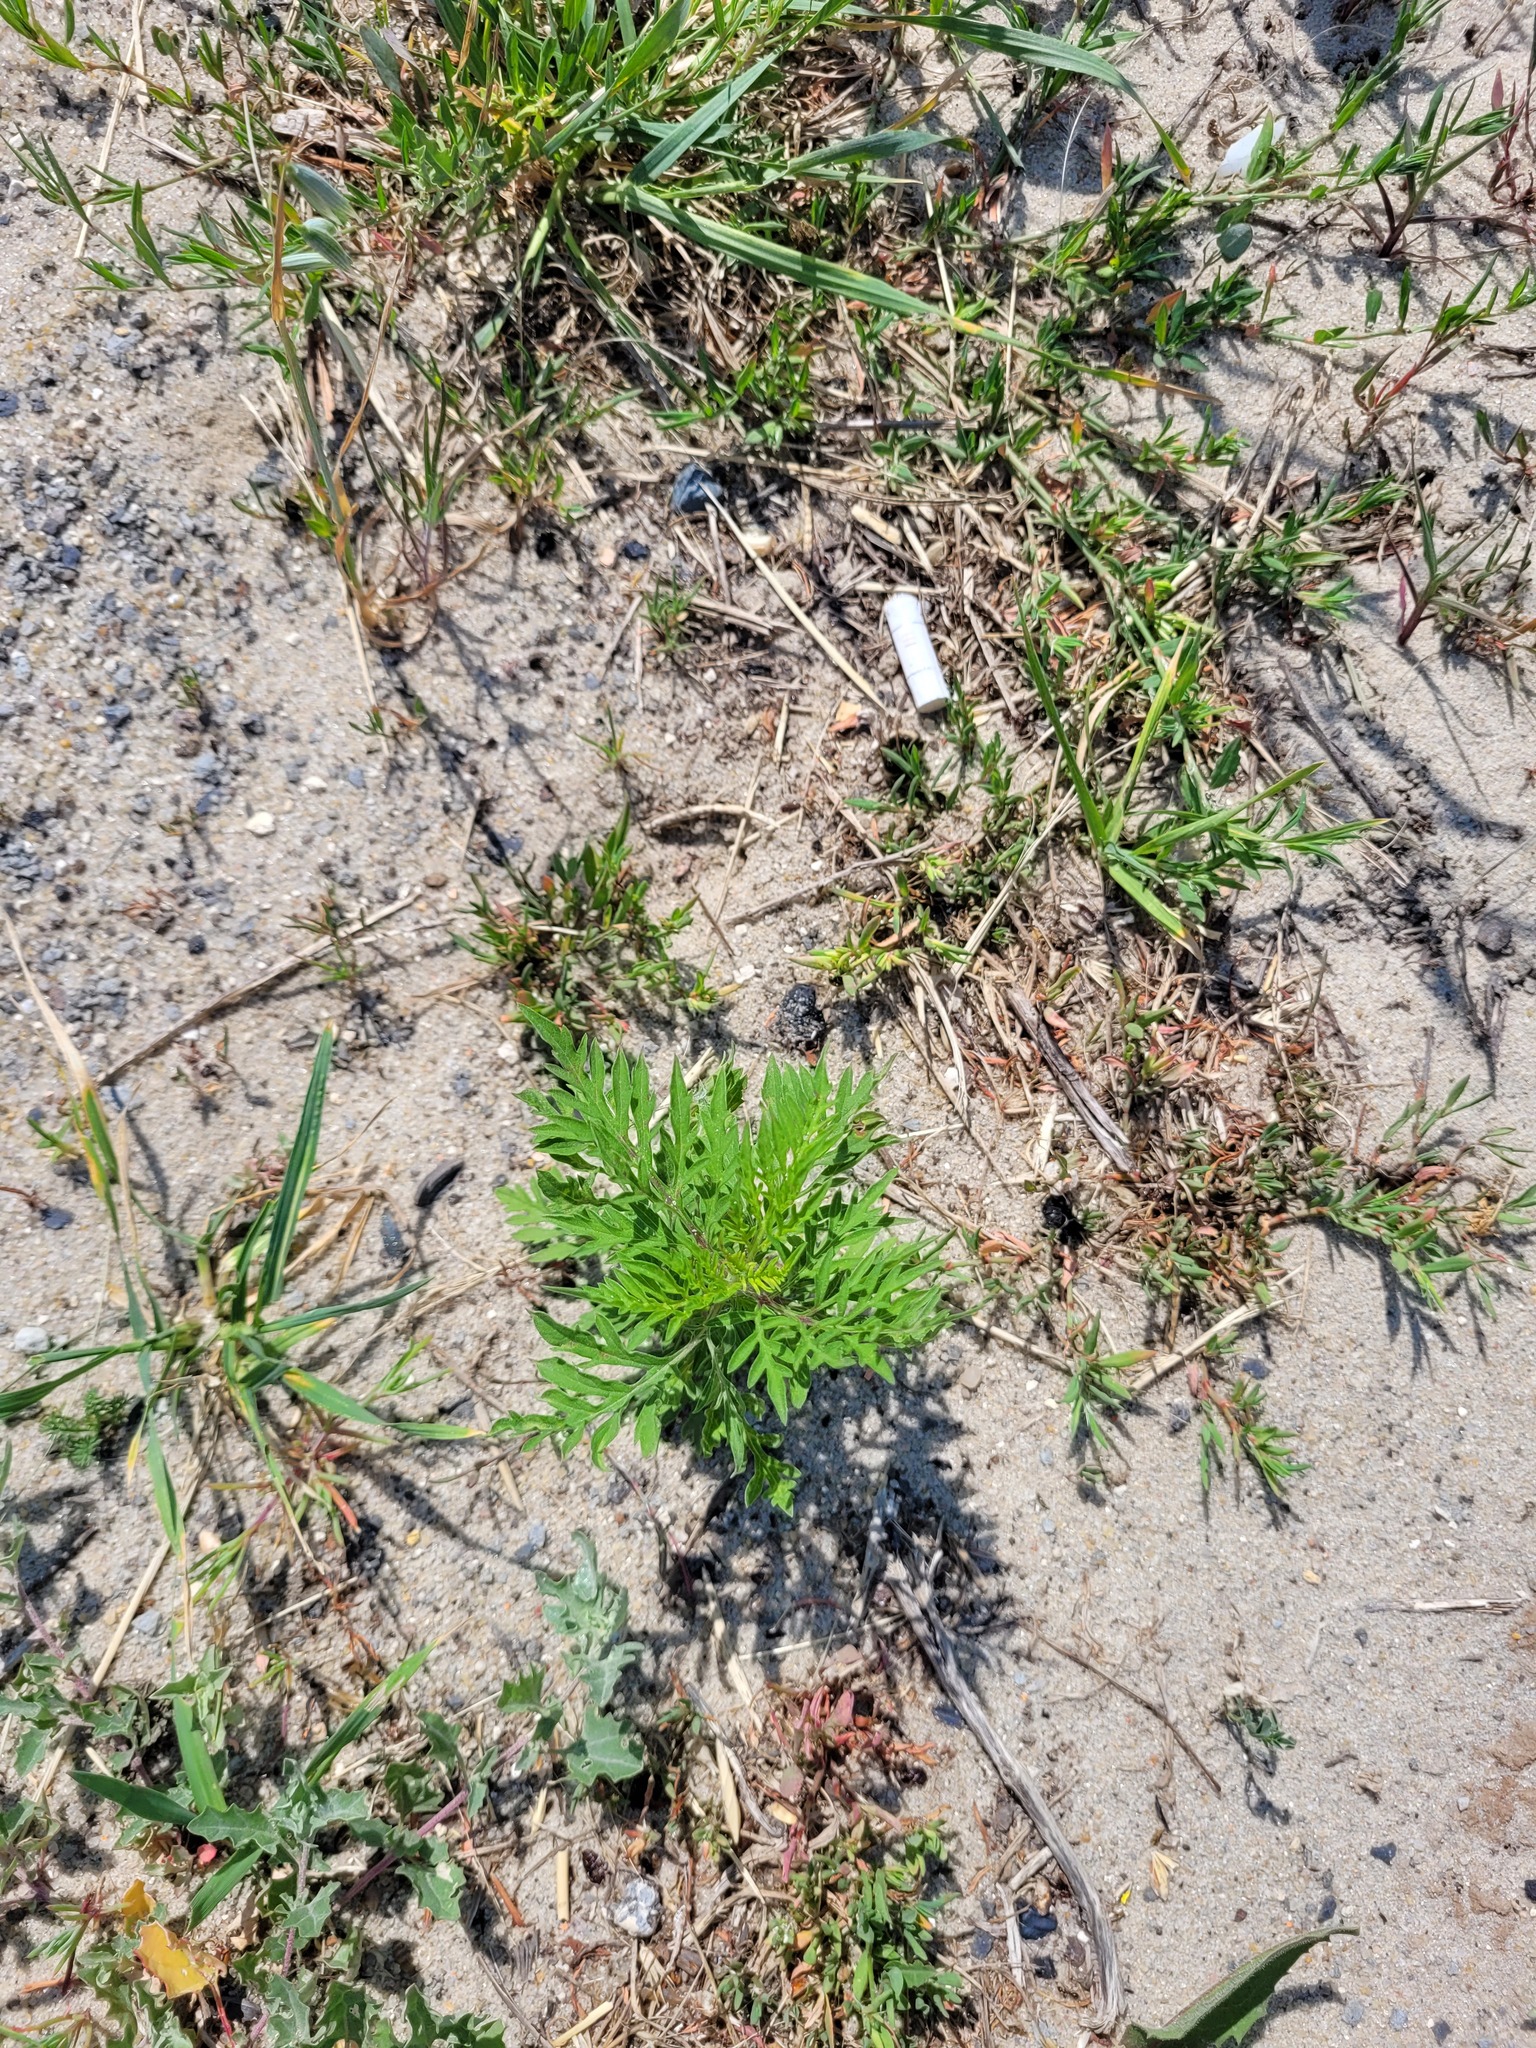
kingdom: Plantae
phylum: Tracheophyta
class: Magnoliopsida
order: Asterales
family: Asteraceae
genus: Ambrosia
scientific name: Ambrosia artemisiifolia
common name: Annual ragweed
